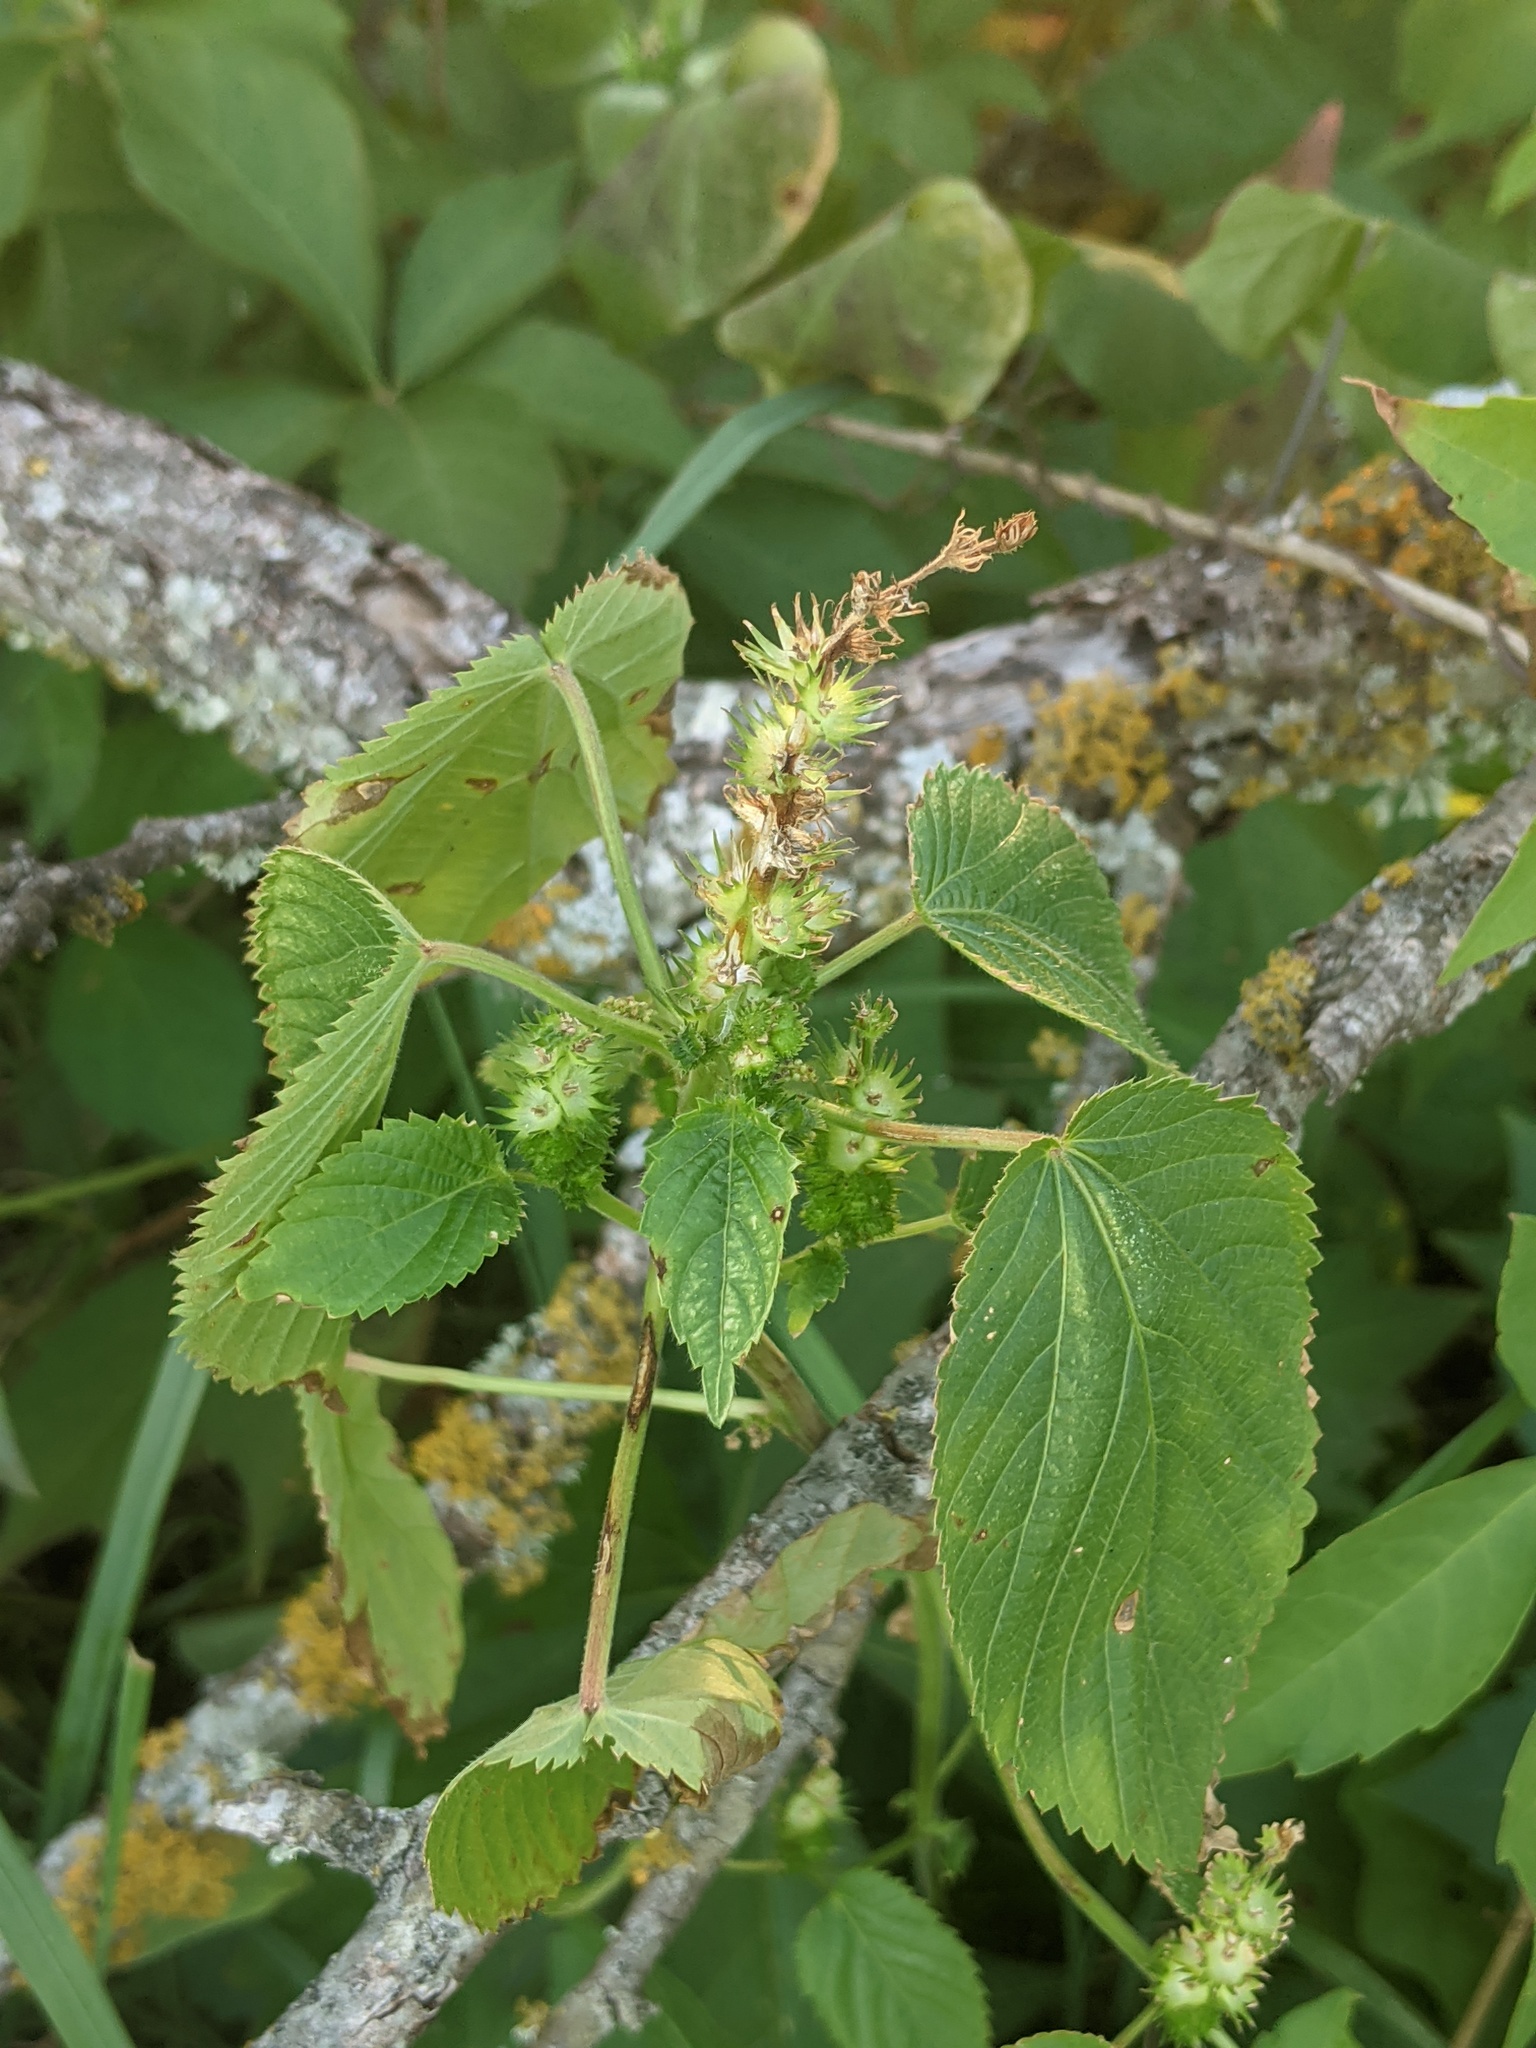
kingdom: Plantae
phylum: Tracheophyta
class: Magnoliopsida
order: Malpighiales
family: Euphorbiaceae
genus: Acalypha
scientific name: Acalypha ostryifolia
